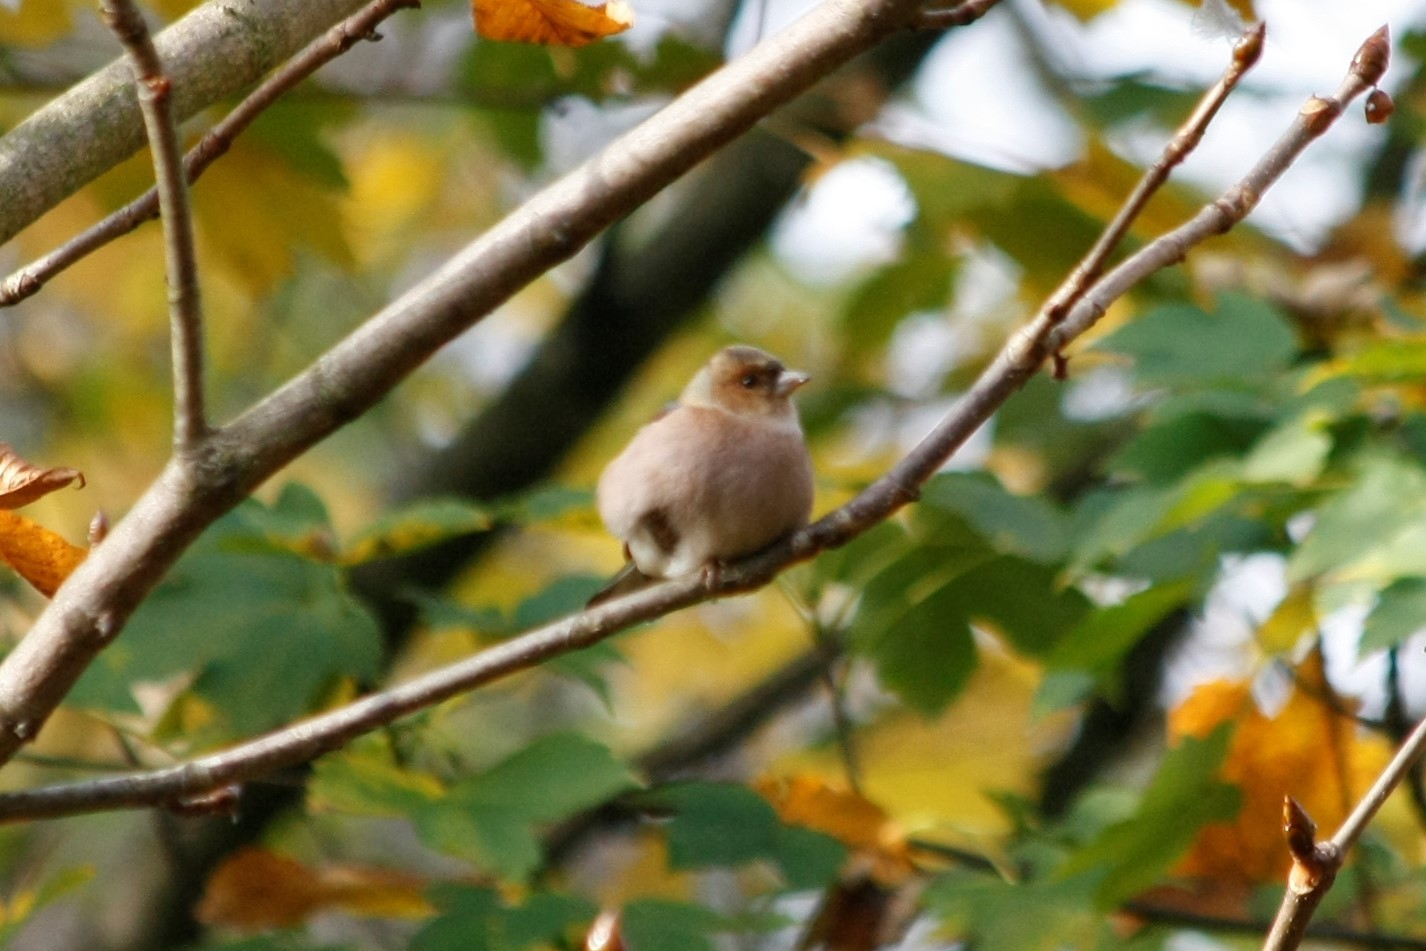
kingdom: Animalia
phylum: Chordata
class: Aves
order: Passeriformes
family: Fringillidae
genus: Fringilla
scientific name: Fringilla coelebs
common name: Common chaffinch
